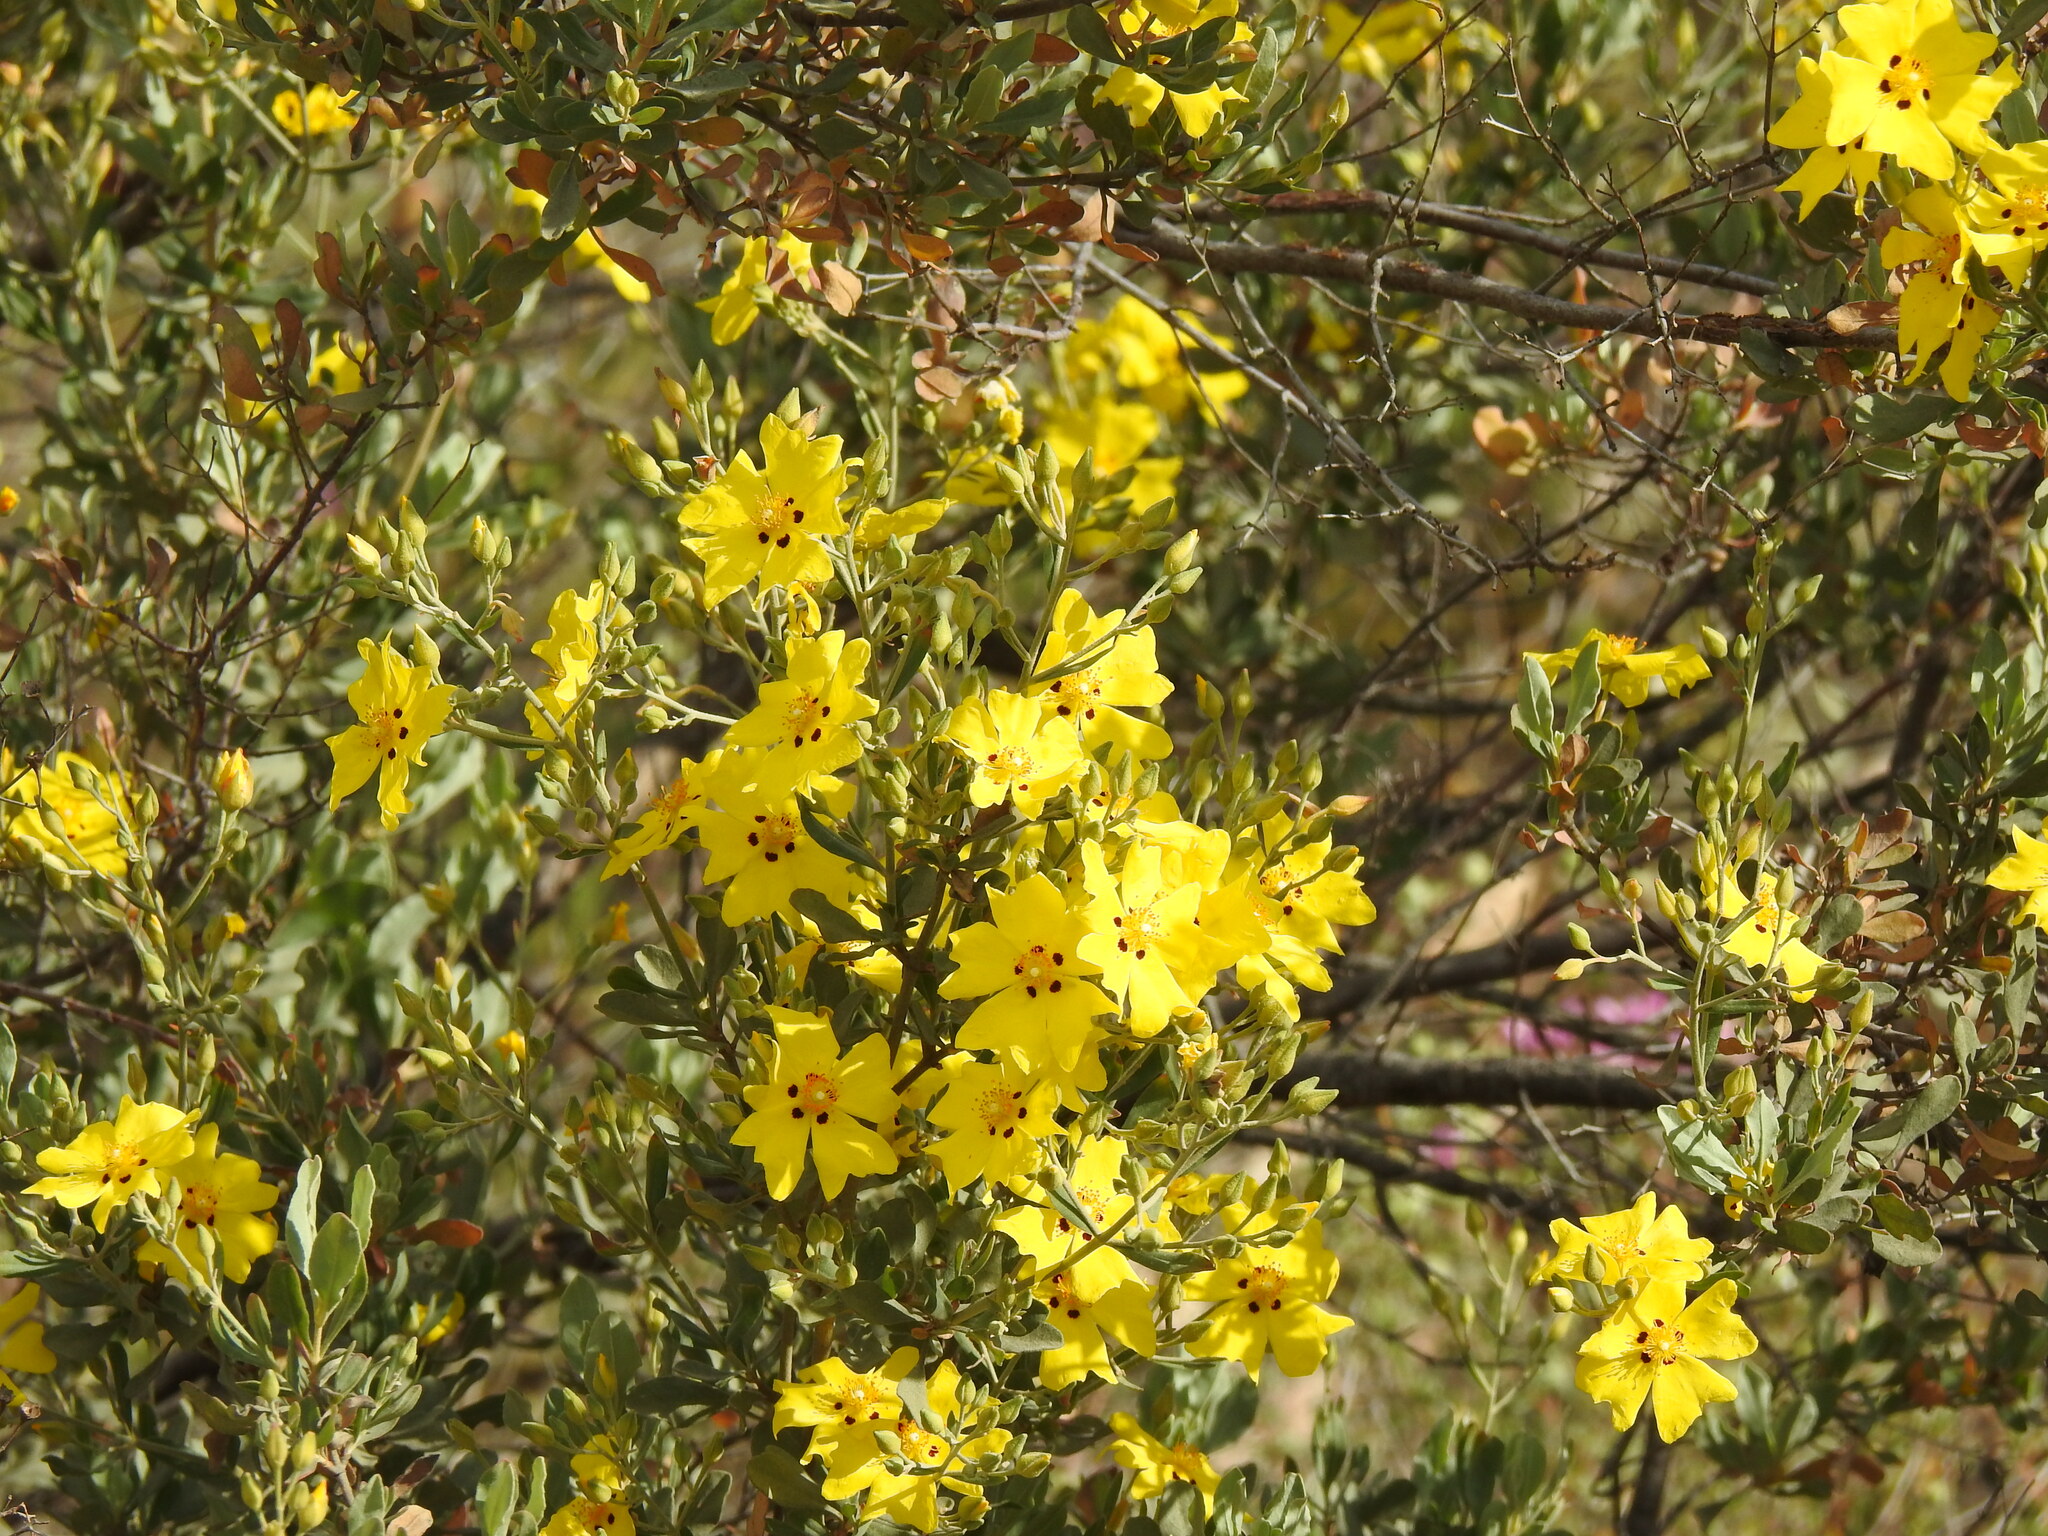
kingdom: Plantae
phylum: Tracheophyta
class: Magnoliopsida
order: Malvales
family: Cistaceae
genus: Halimium
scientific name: Halimium halimifolium
